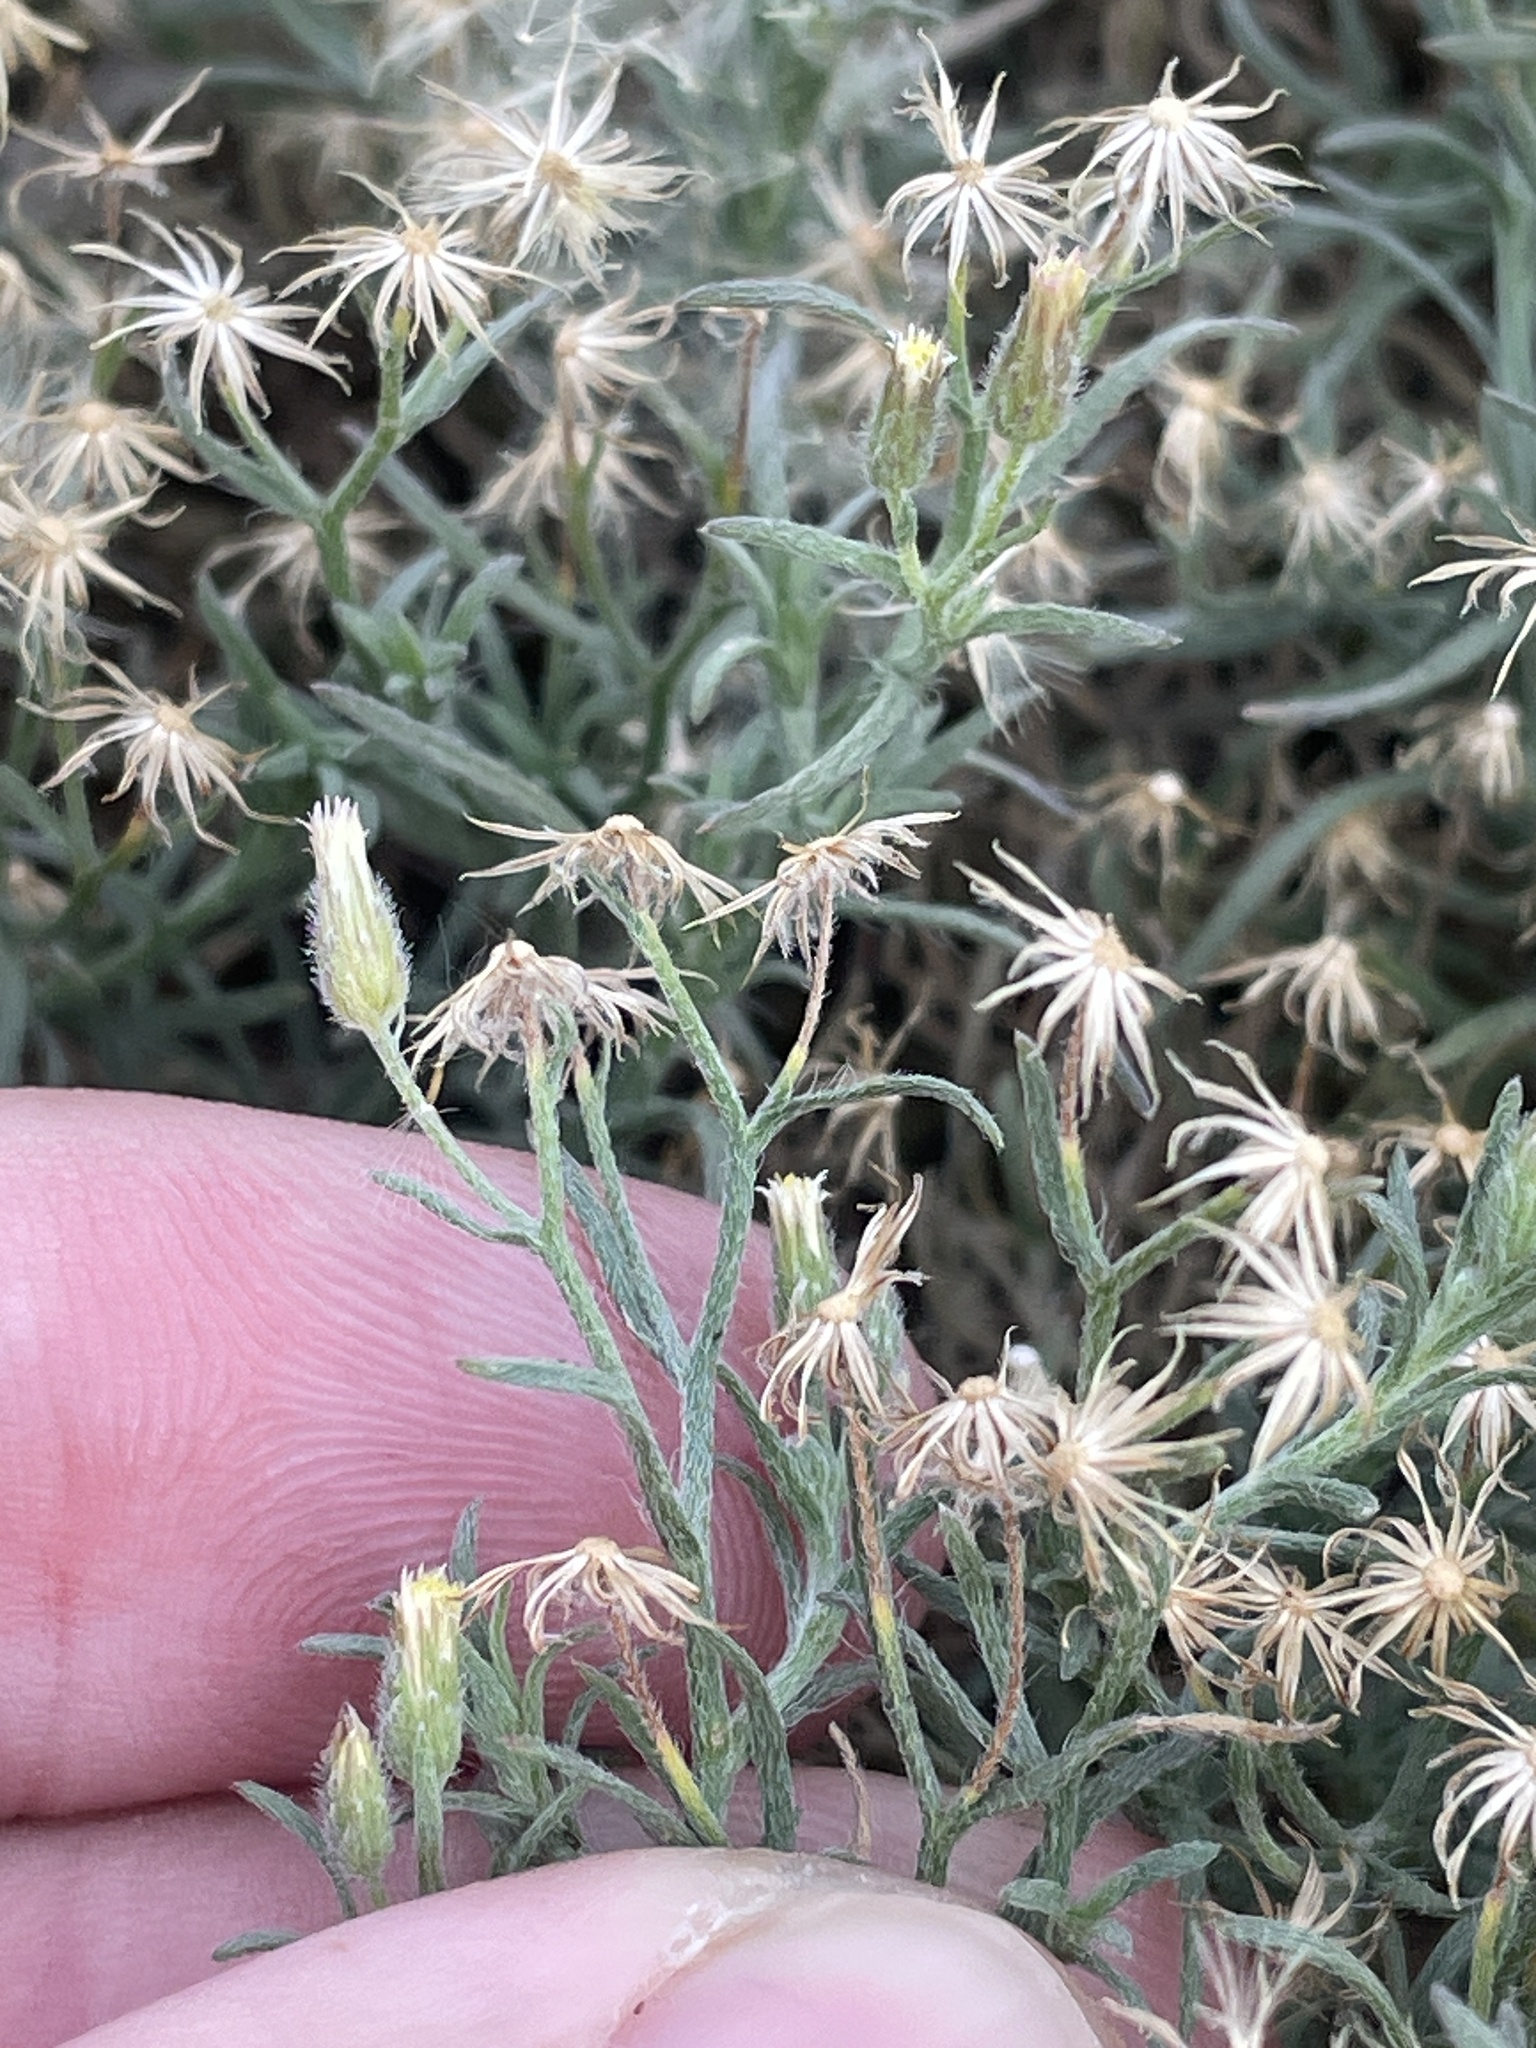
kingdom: Plantae
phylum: Tracheophyta
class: Magnoliopsida
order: Asterales
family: Asteraceae
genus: Erigeron
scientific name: Erigeron divaricatus
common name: Dwarf conyza
